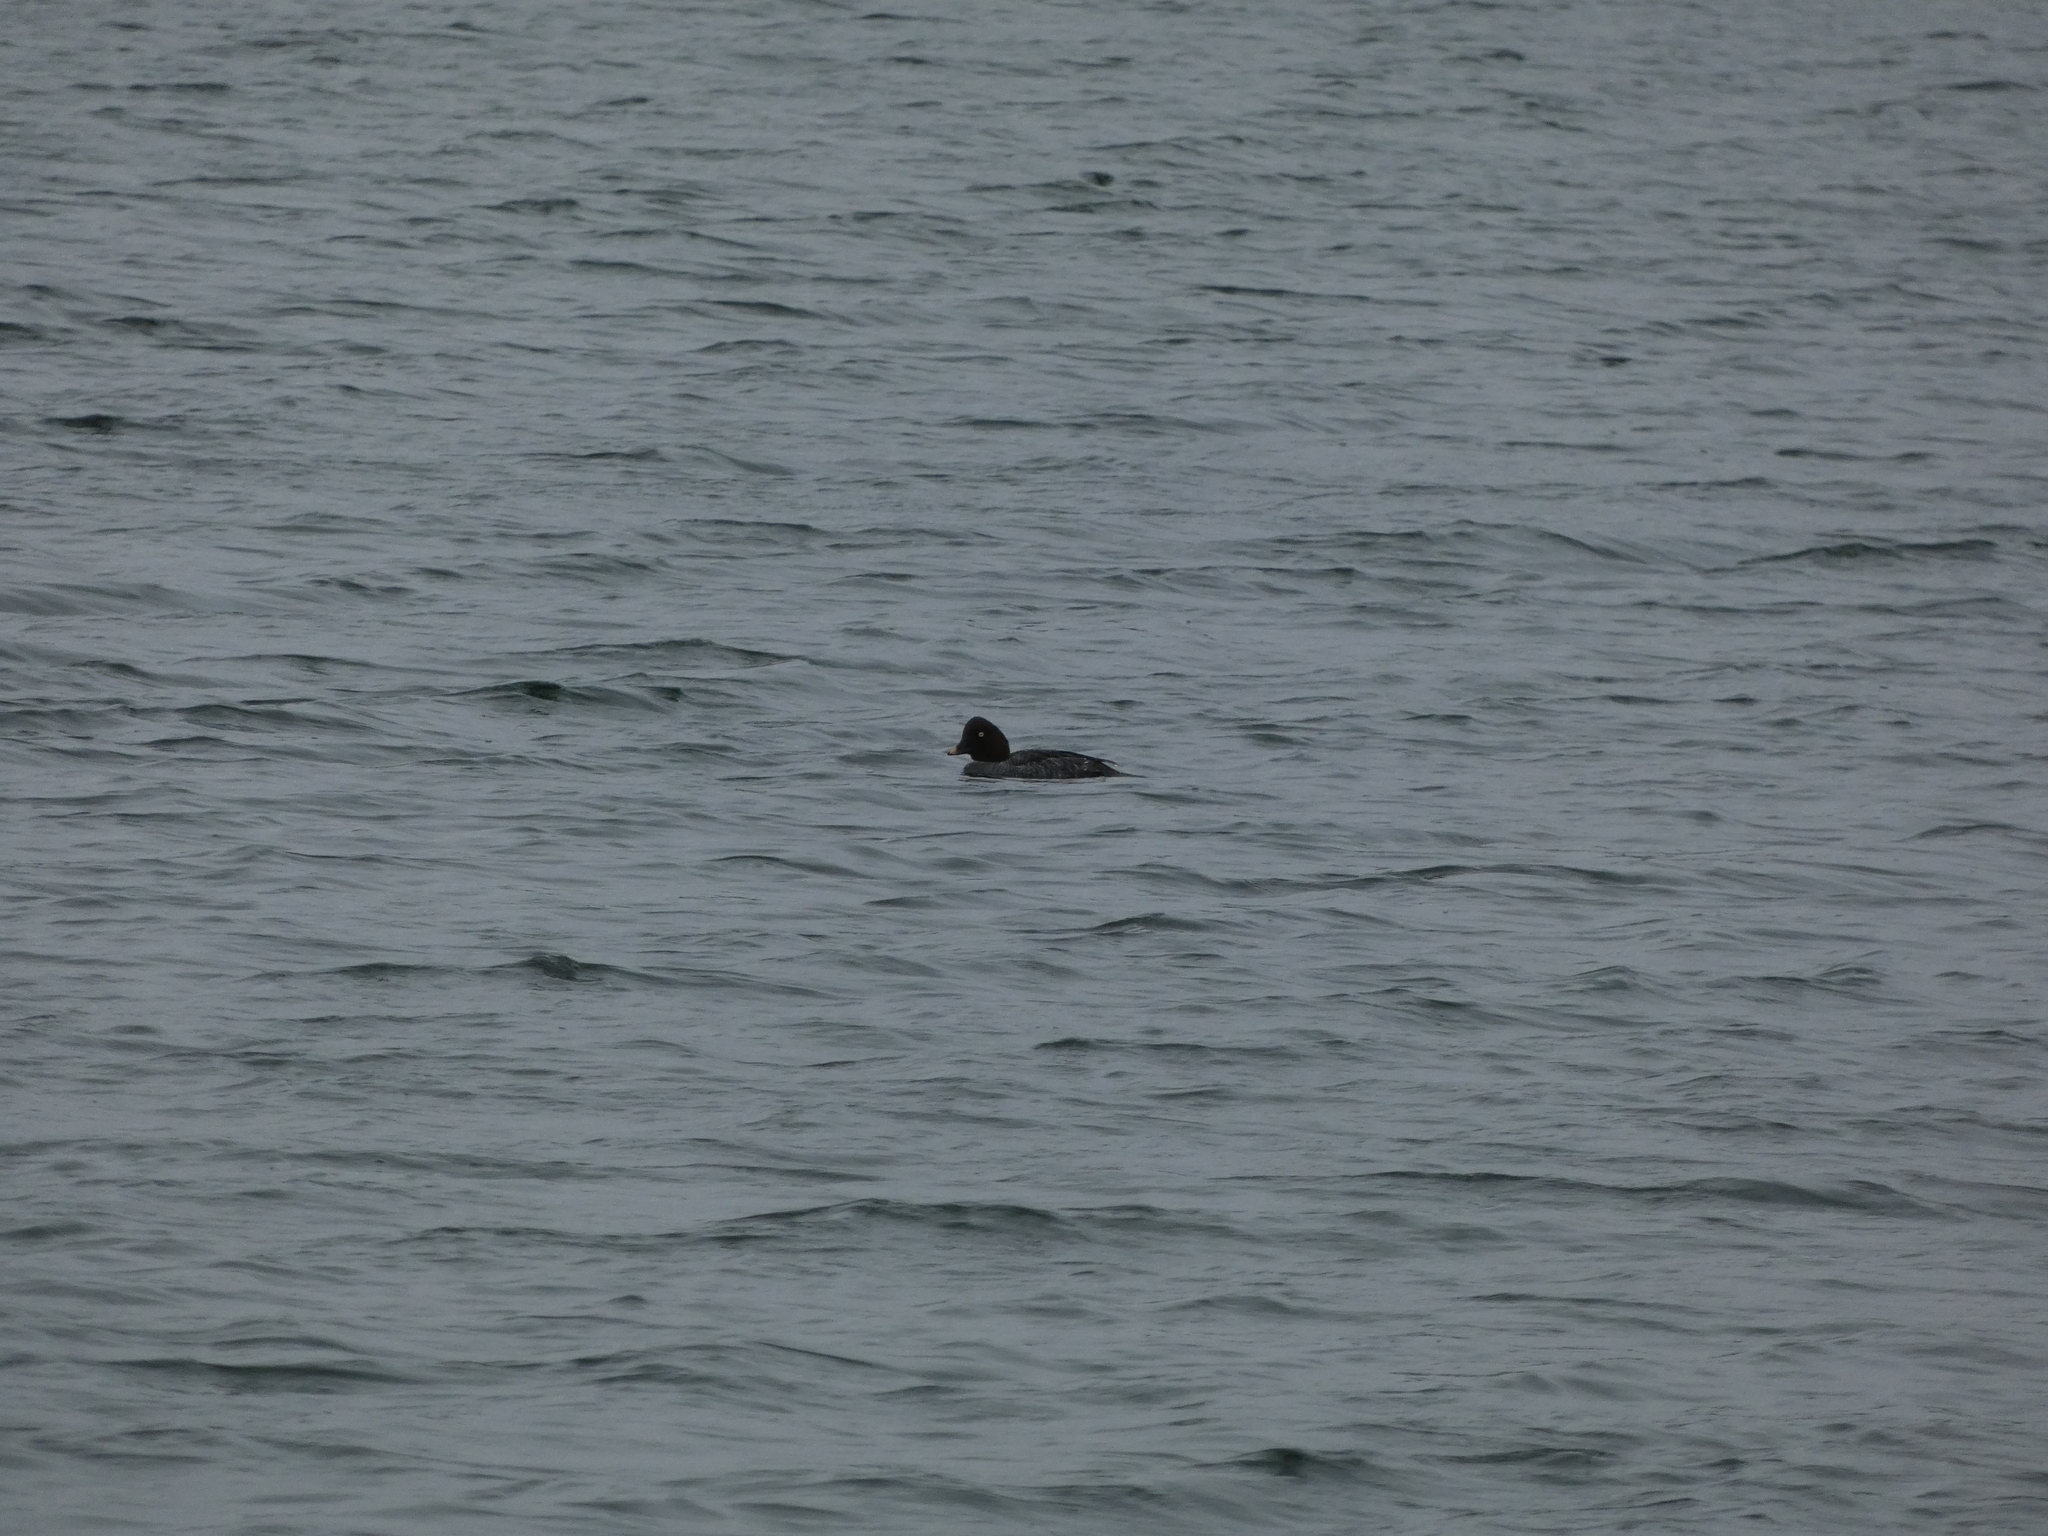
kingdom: Animalia
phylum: Chordata
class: Aves
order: Anseriformes
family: Anatidae
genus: Bucephala
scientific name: Bucephala clangula
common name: Common goldeneye
